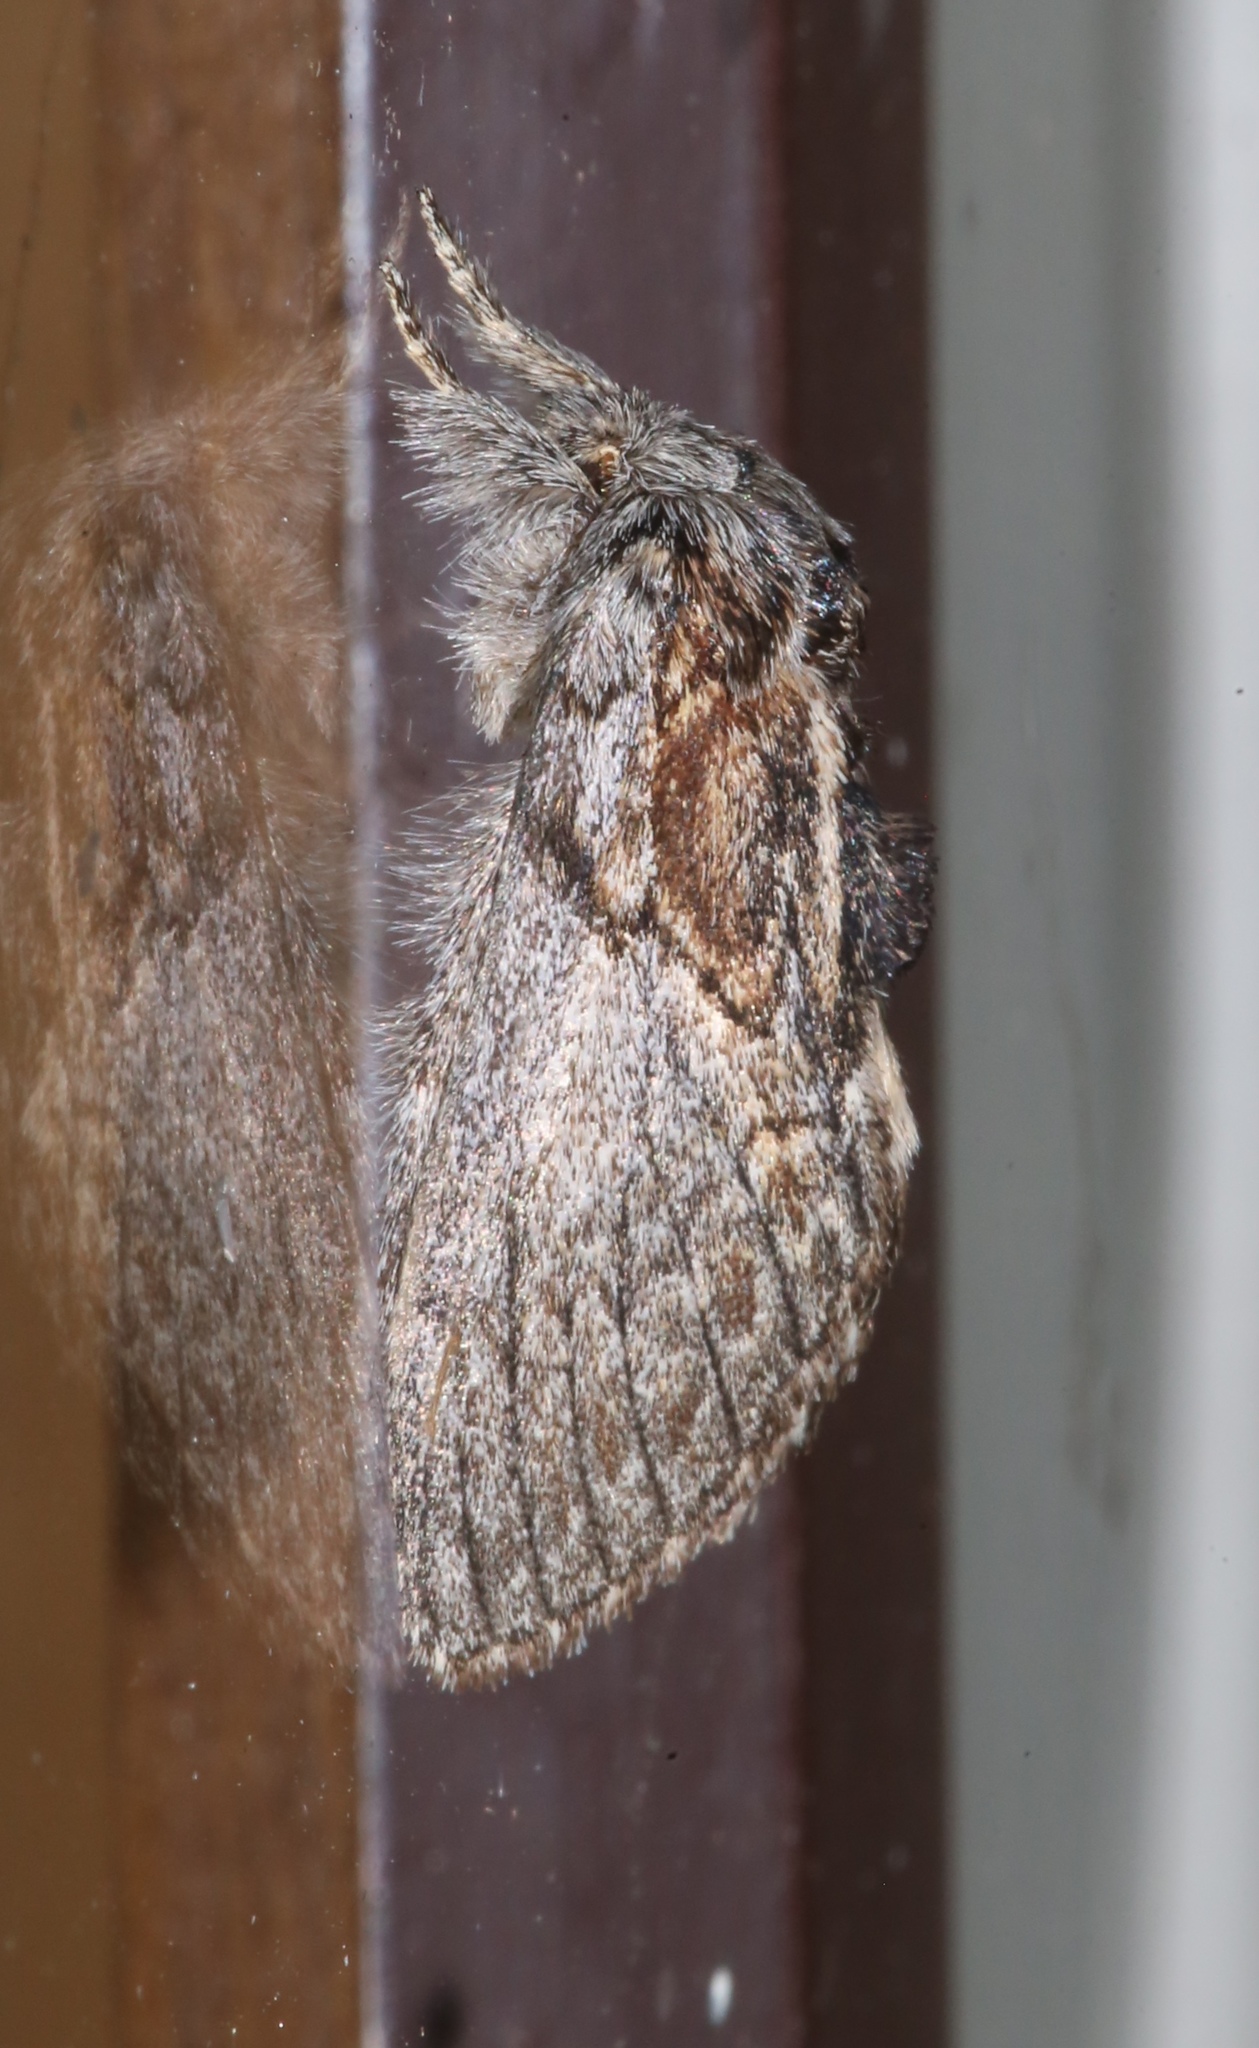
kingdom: Animalia
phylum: Arthropoda
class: Insecta
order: Lepidoptera
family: Notodontidae
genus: Peridea
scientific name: Peridea basitriens
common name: Oval-based prominent
